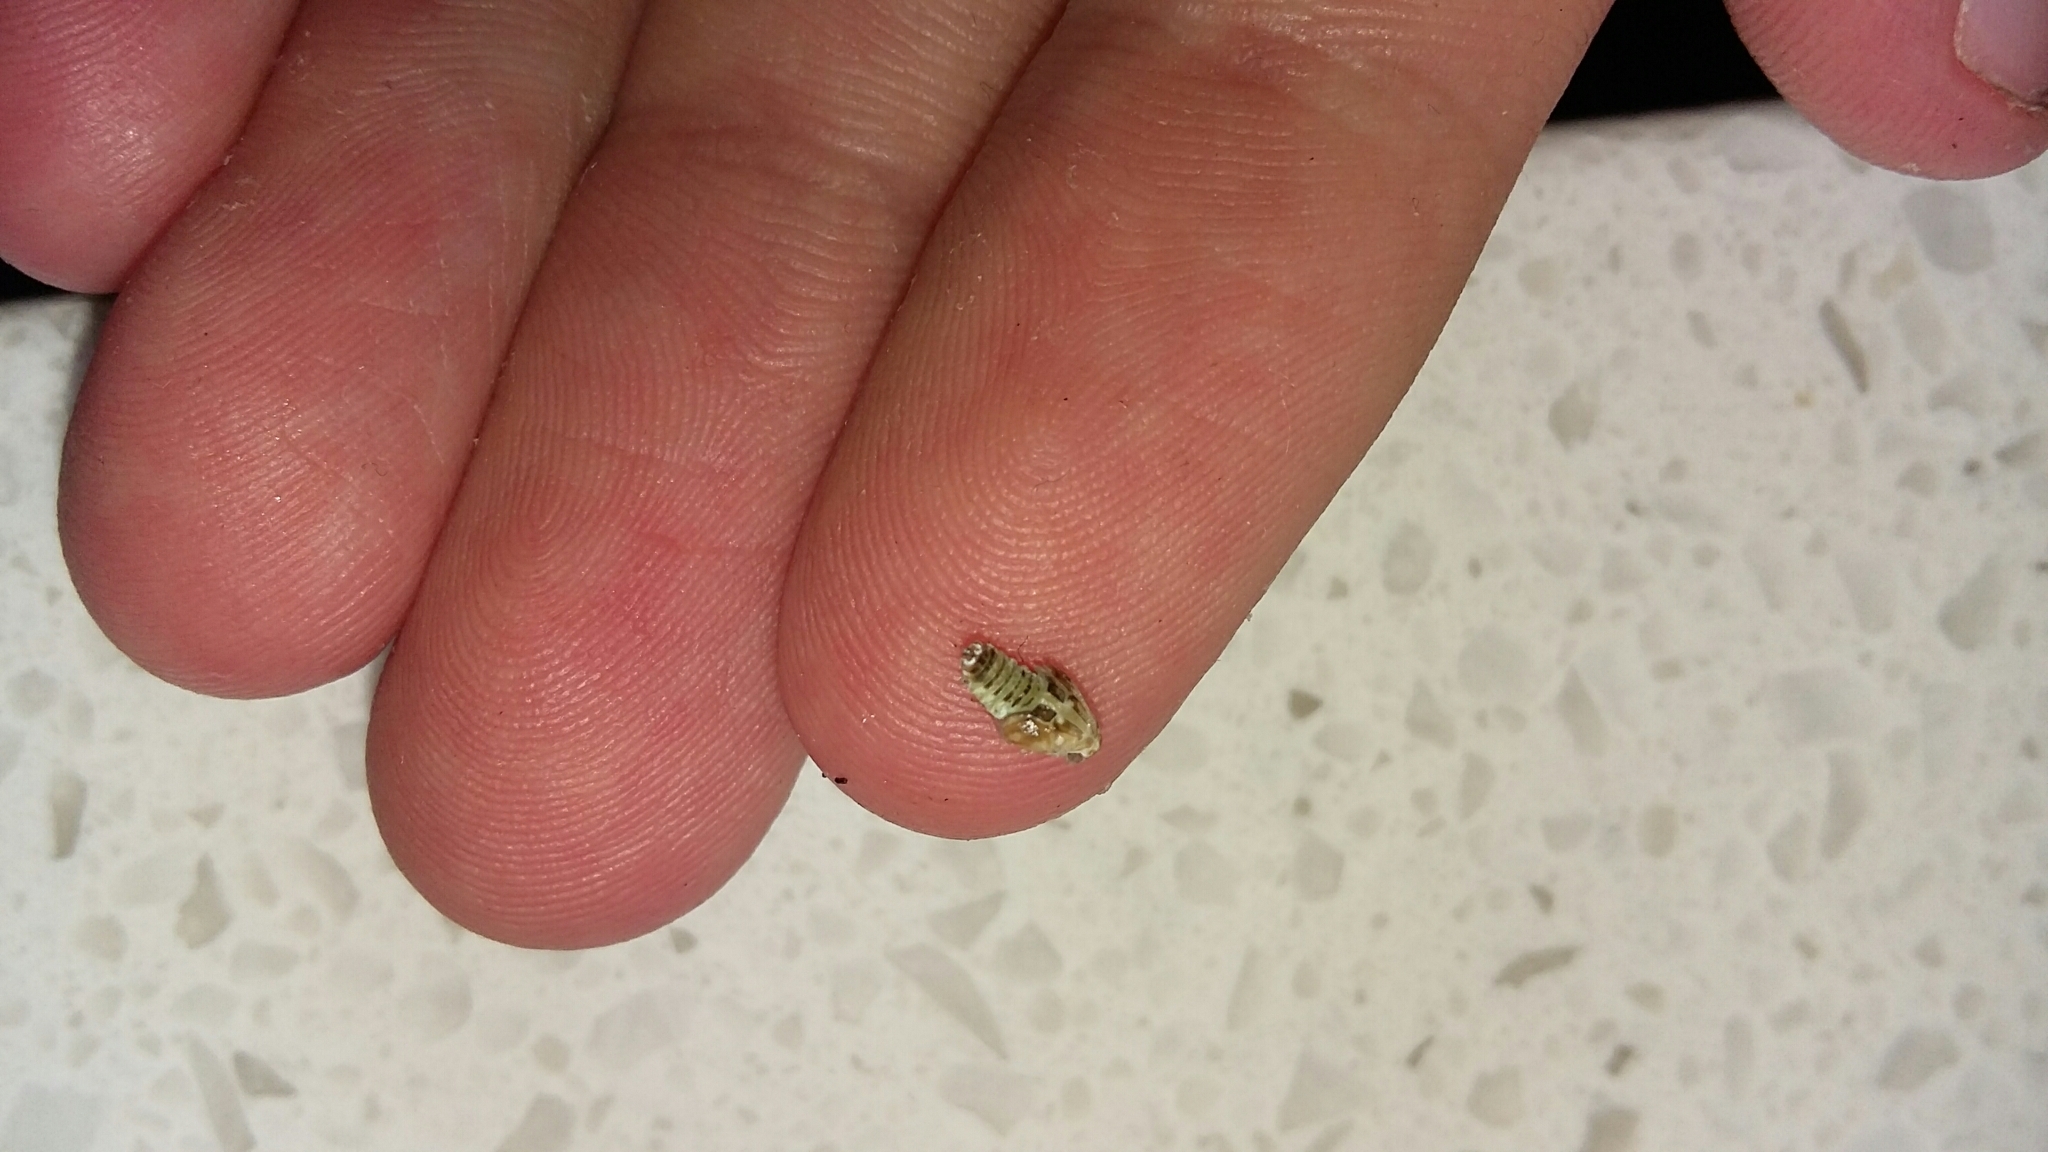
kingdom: Animalia
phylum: Arthropoda
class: Insecta
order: Hemiptera
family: Ricaniidae
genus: Scolypopa
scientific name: Scolypopa australis
